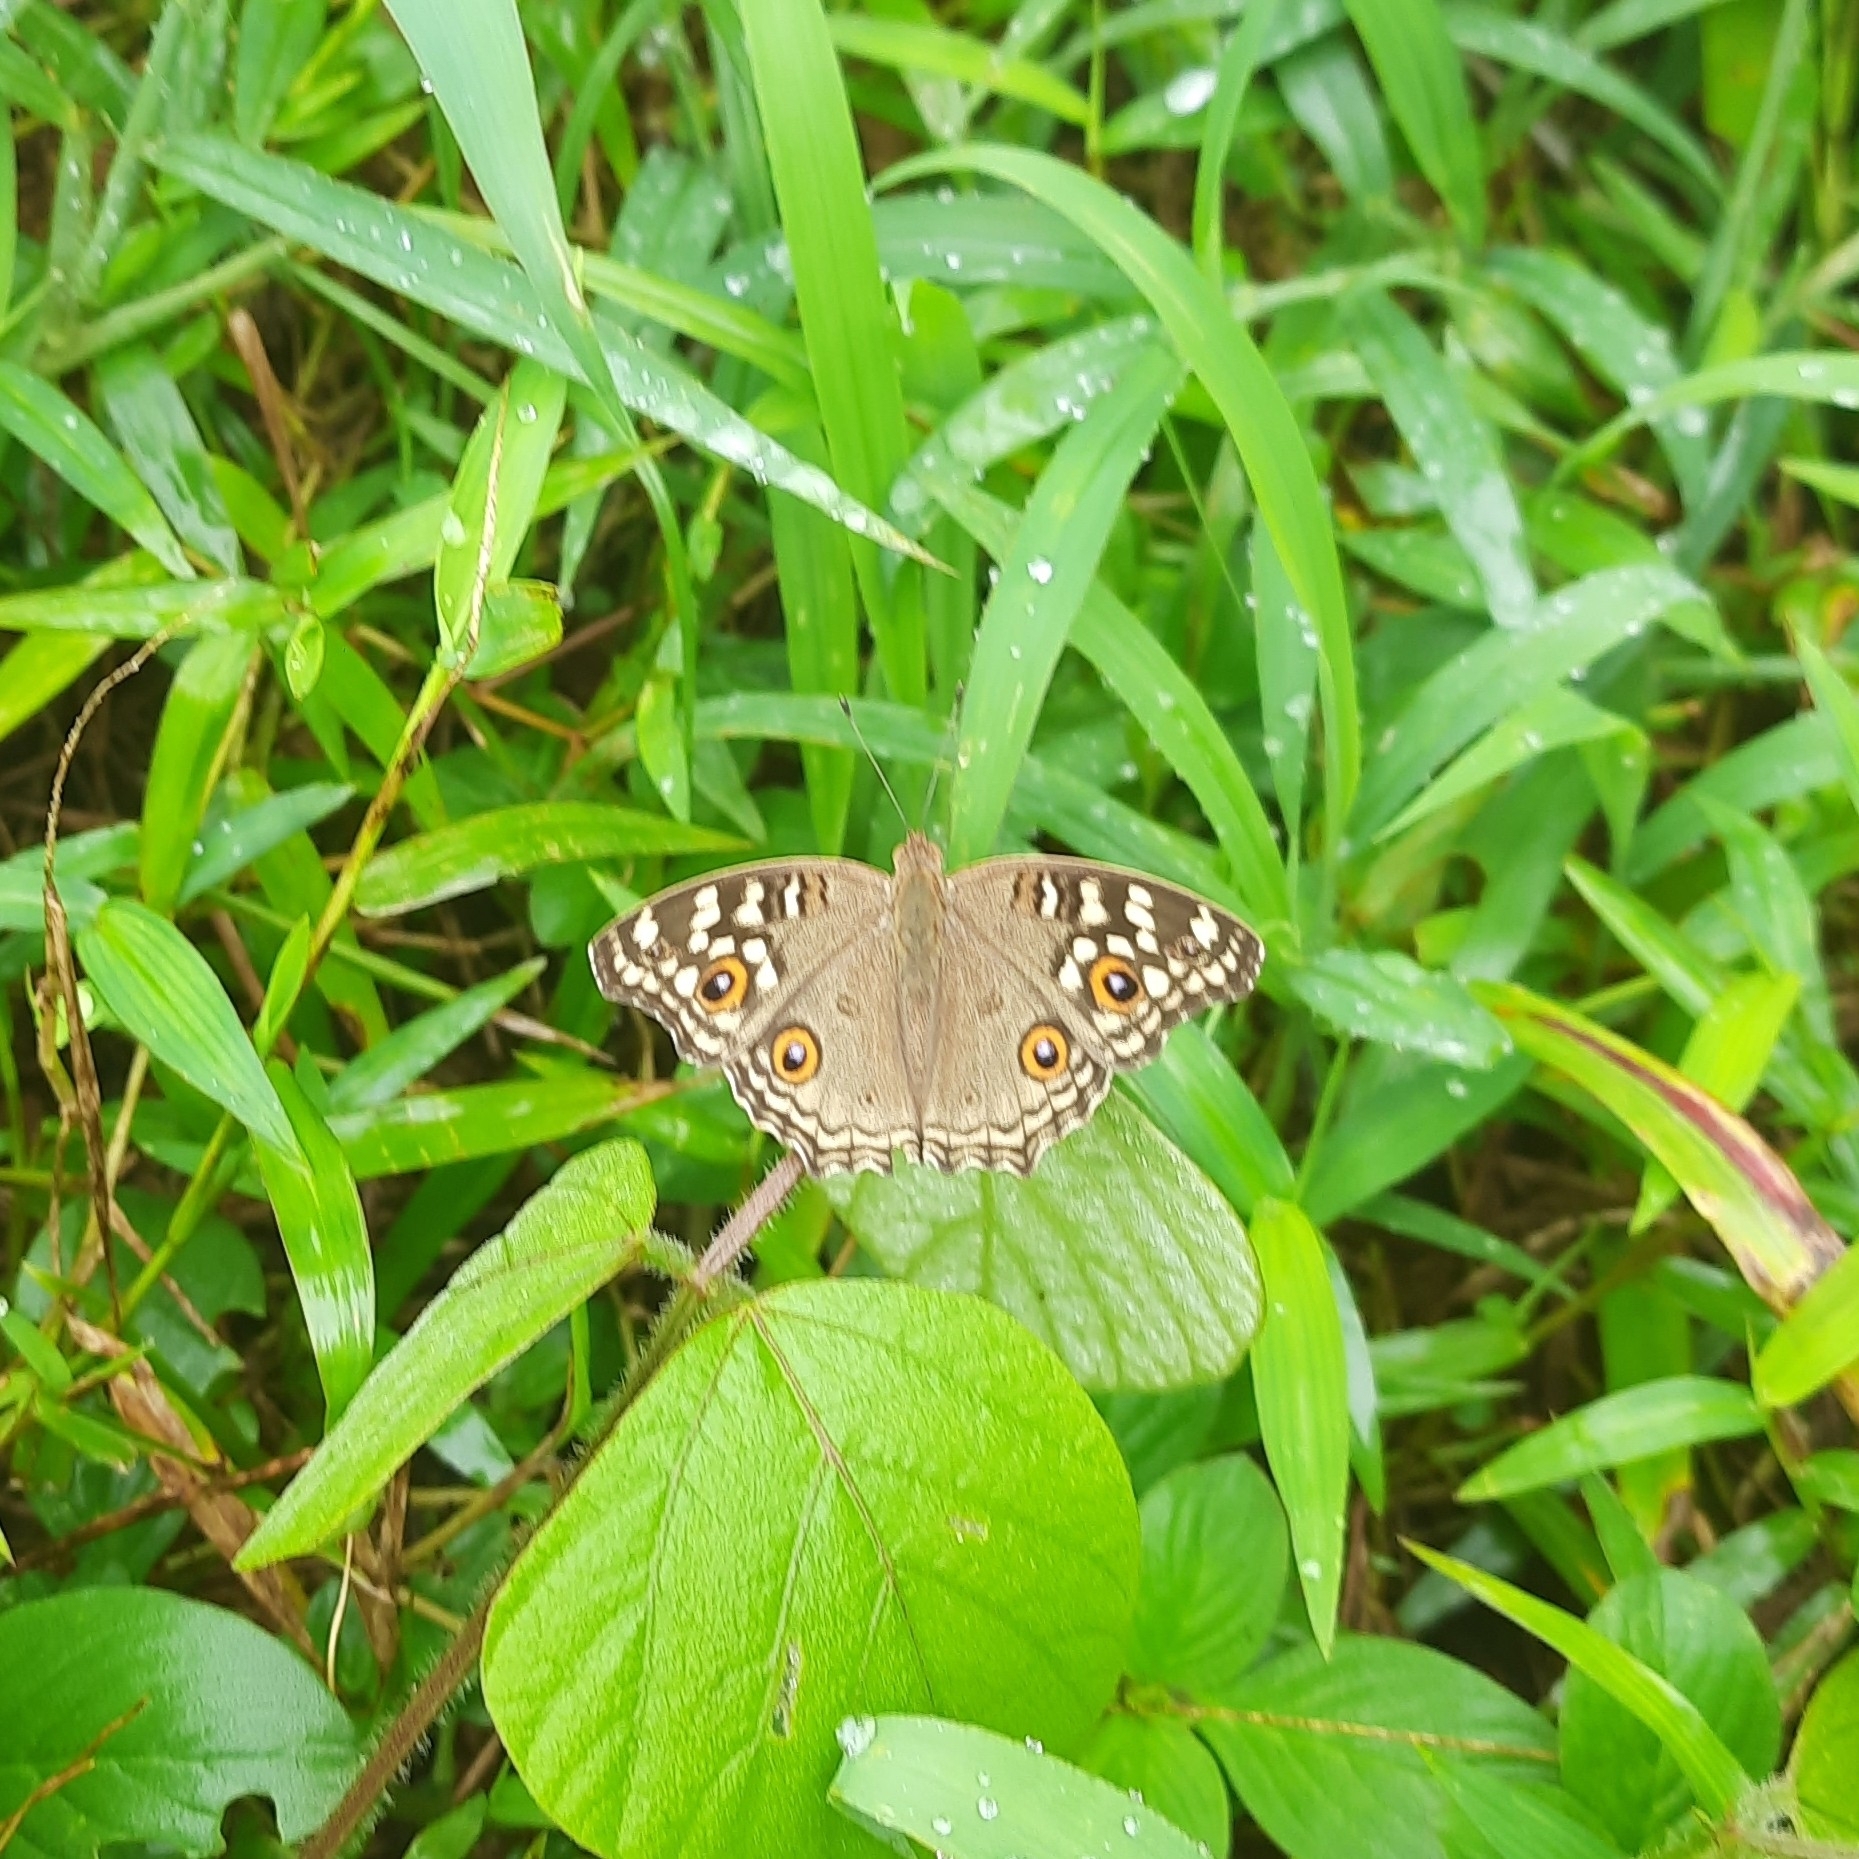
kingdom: Animalia
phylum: Arthropoda
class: Insecta
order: Lepidoptera
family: Nymphalidae
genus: Junonia
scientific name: Junonia lemonias
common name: Lemon pansy
